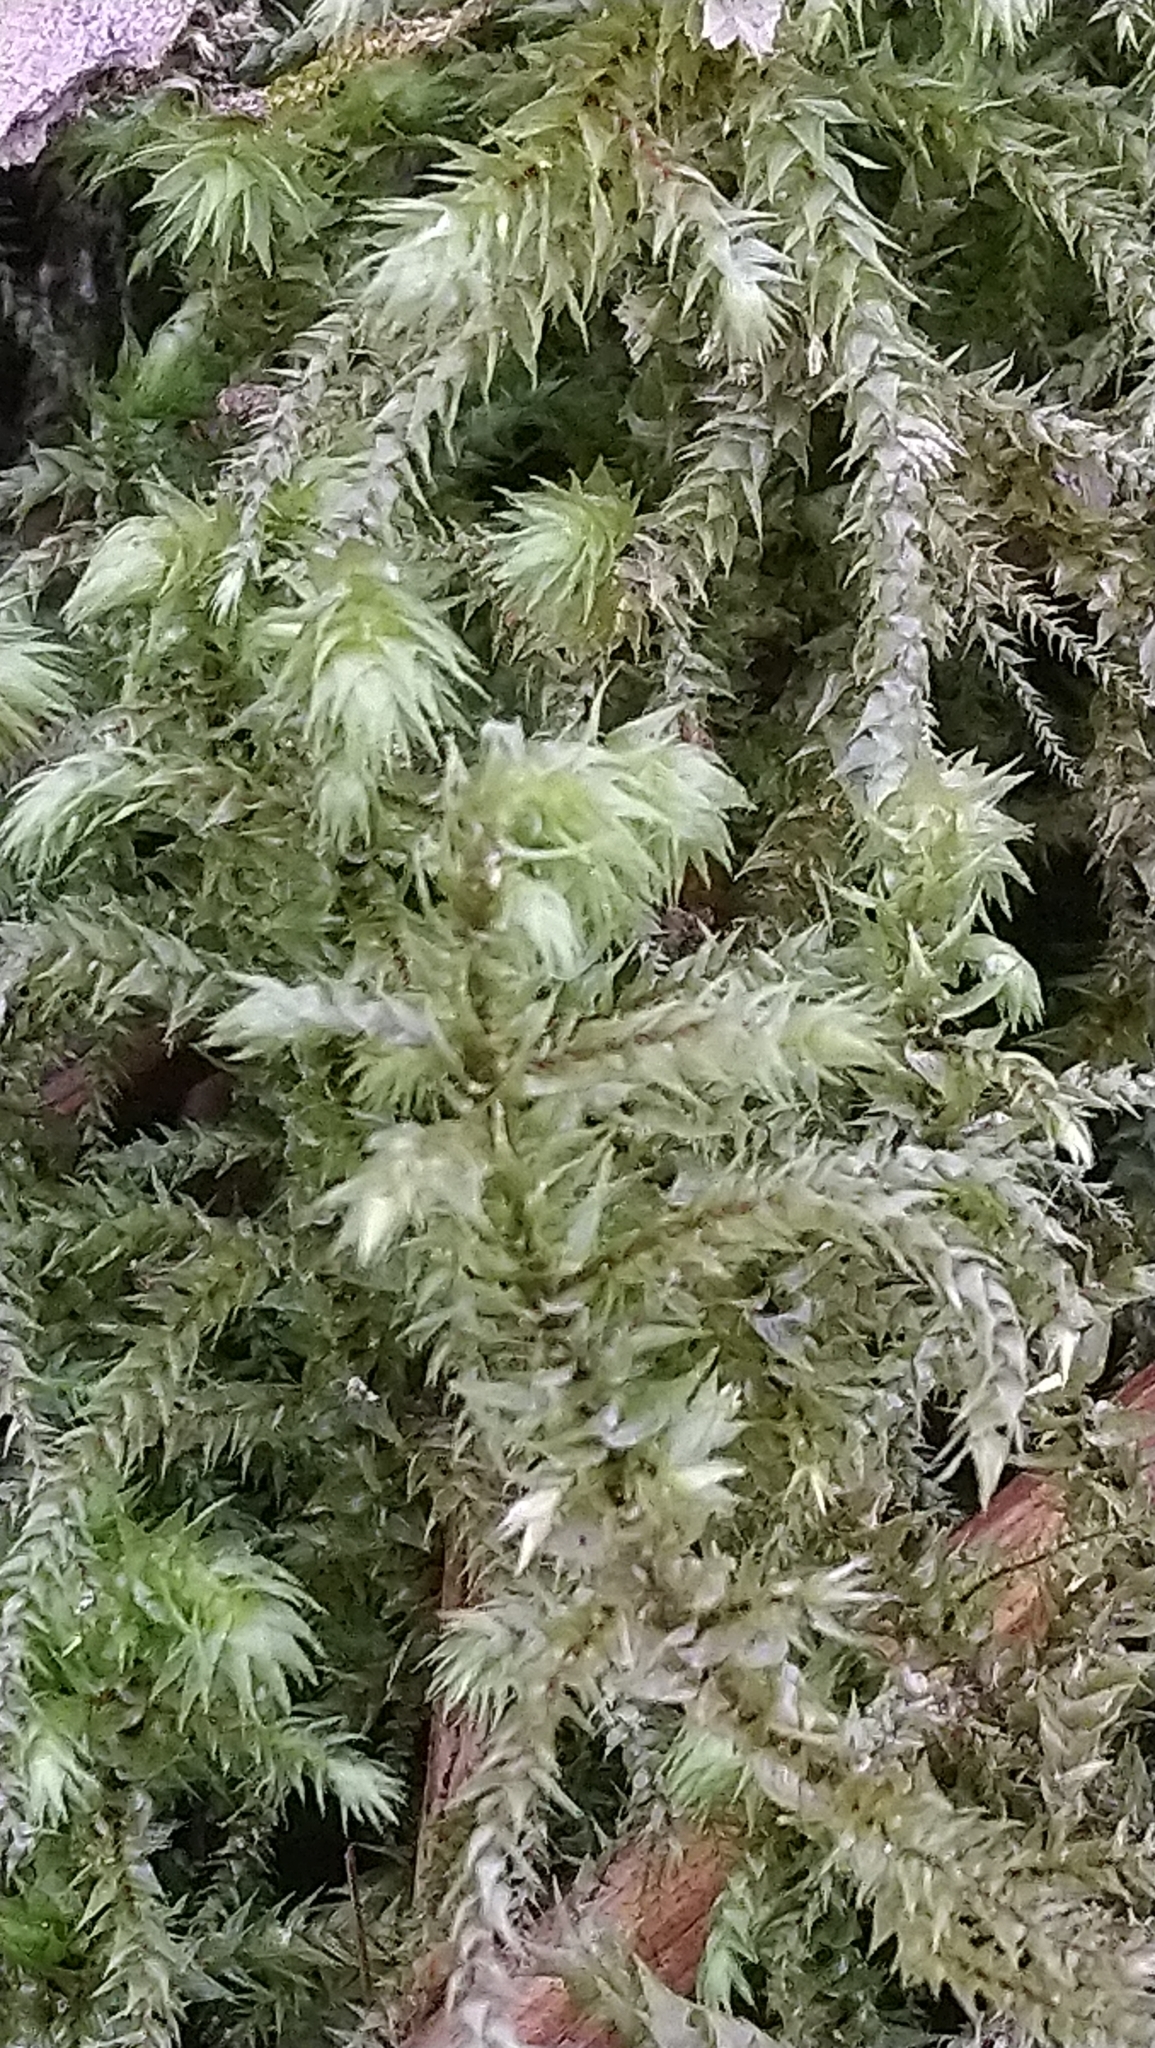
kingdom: Plantae
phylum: Bryophyta
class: Bryopsida
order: Hypnales
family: Hylocomiaceae
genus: Hylocomiadelphus
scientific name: Hylocomiadelphus triquetrus
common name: Rough goose neck moss
